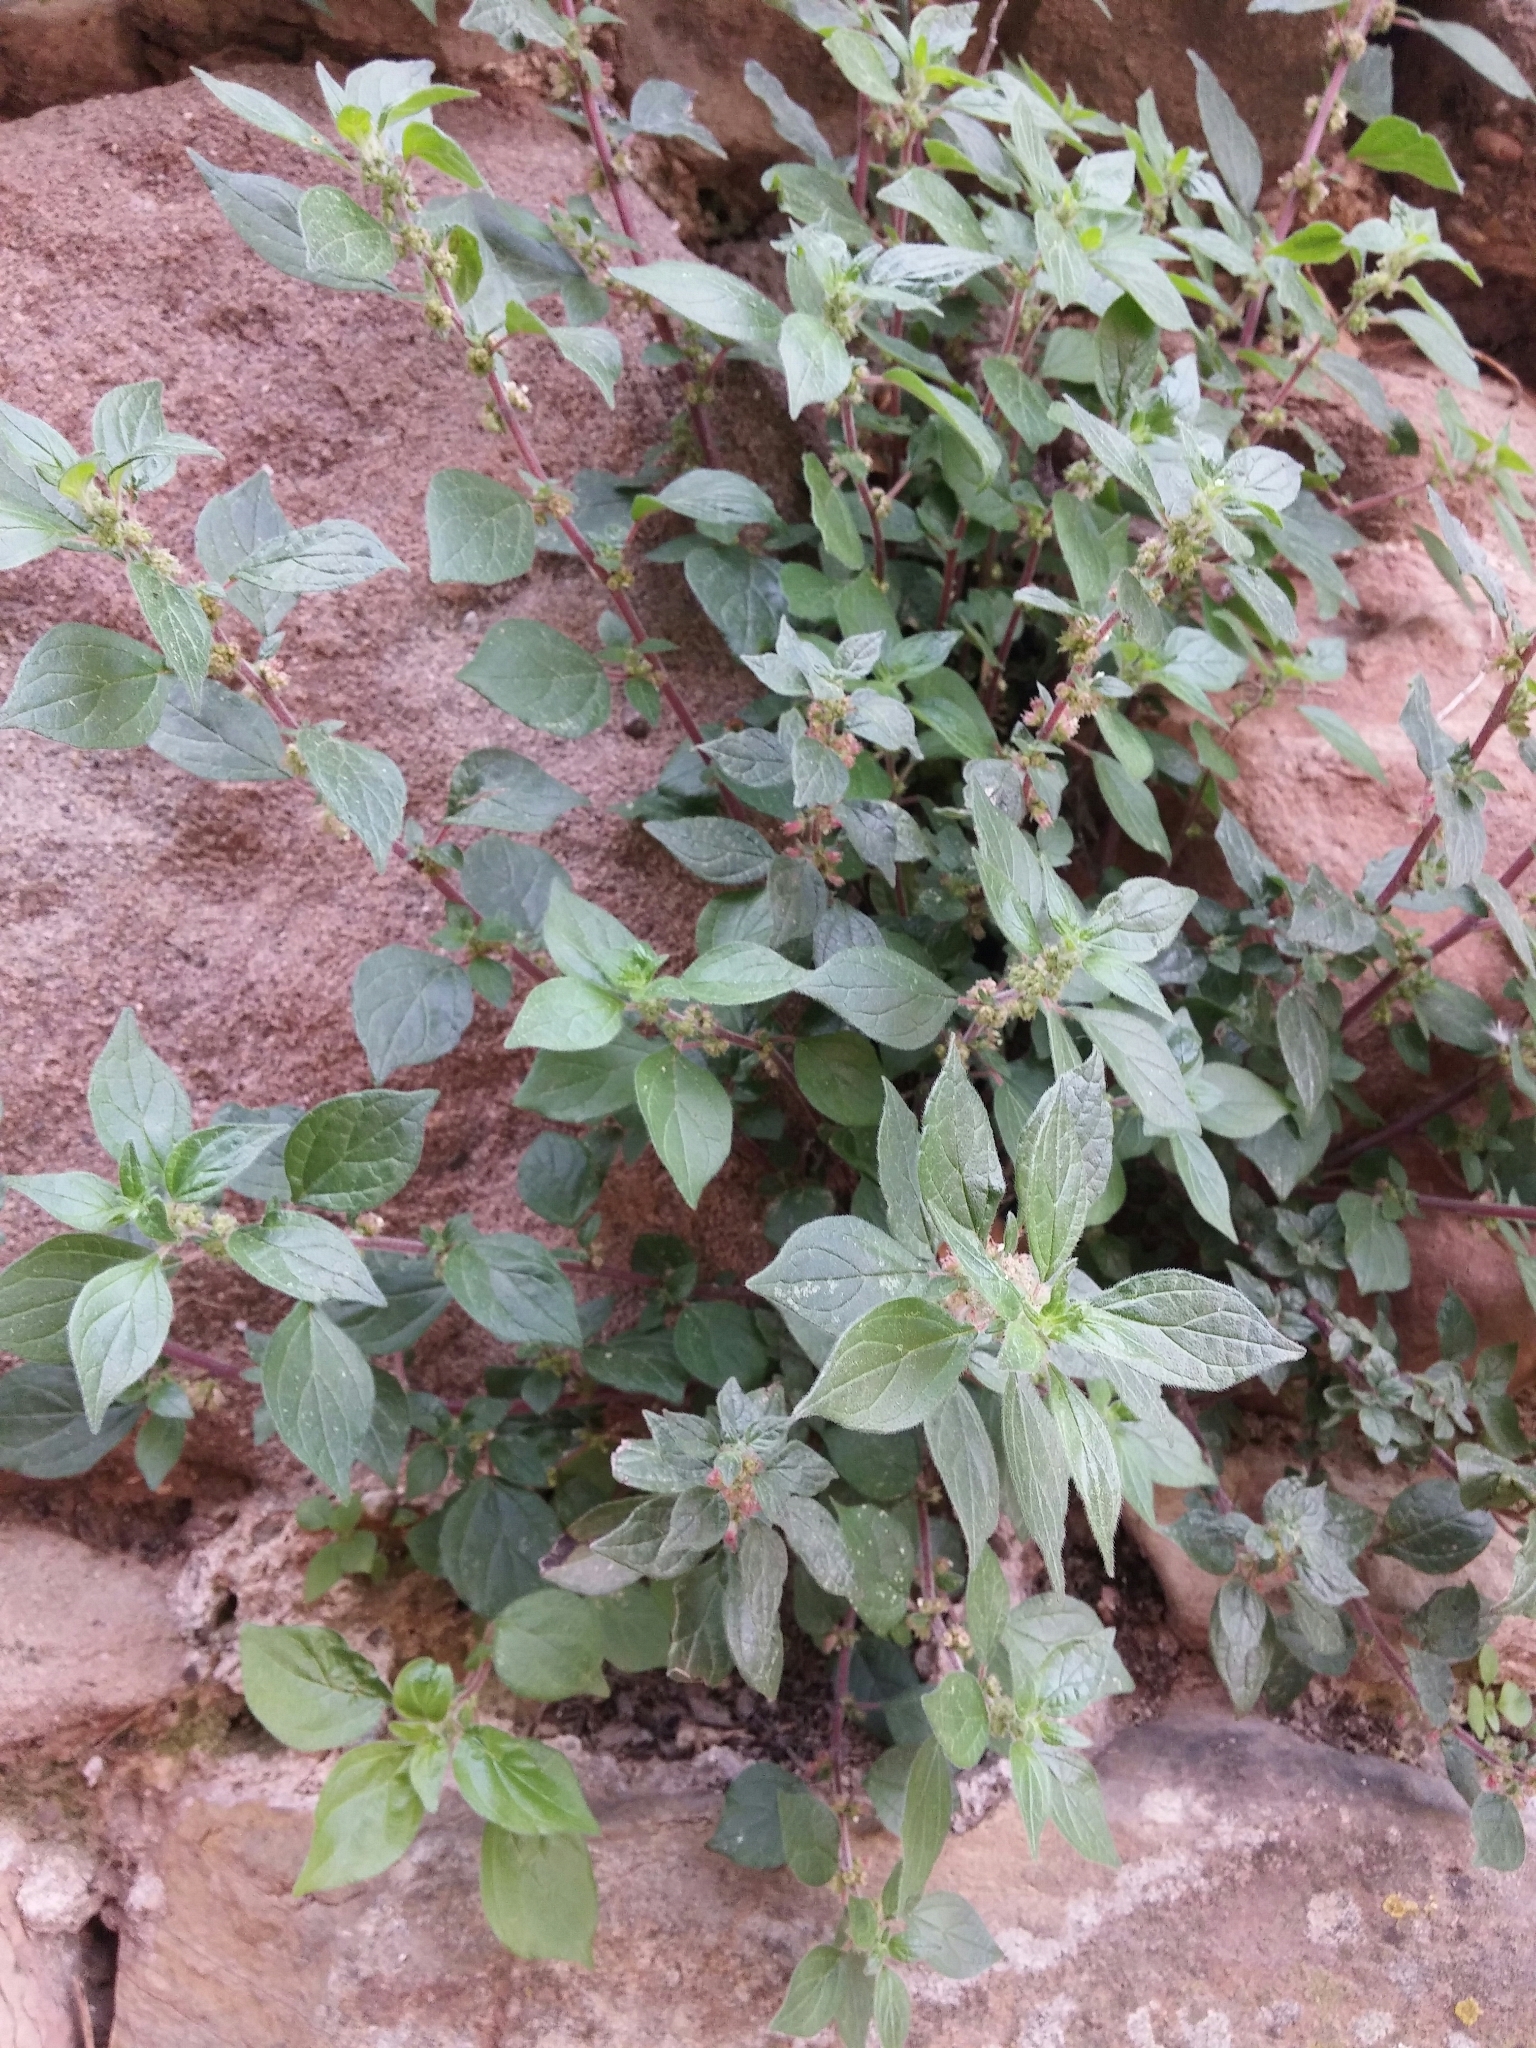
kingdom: Plantae
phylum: Tracheophyta
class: Magnoliopsida
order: Rosales
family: Urticaceae
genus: Parietaria
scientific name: Parietaria officinalis
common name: Eastern pellitory-of-the-wall
